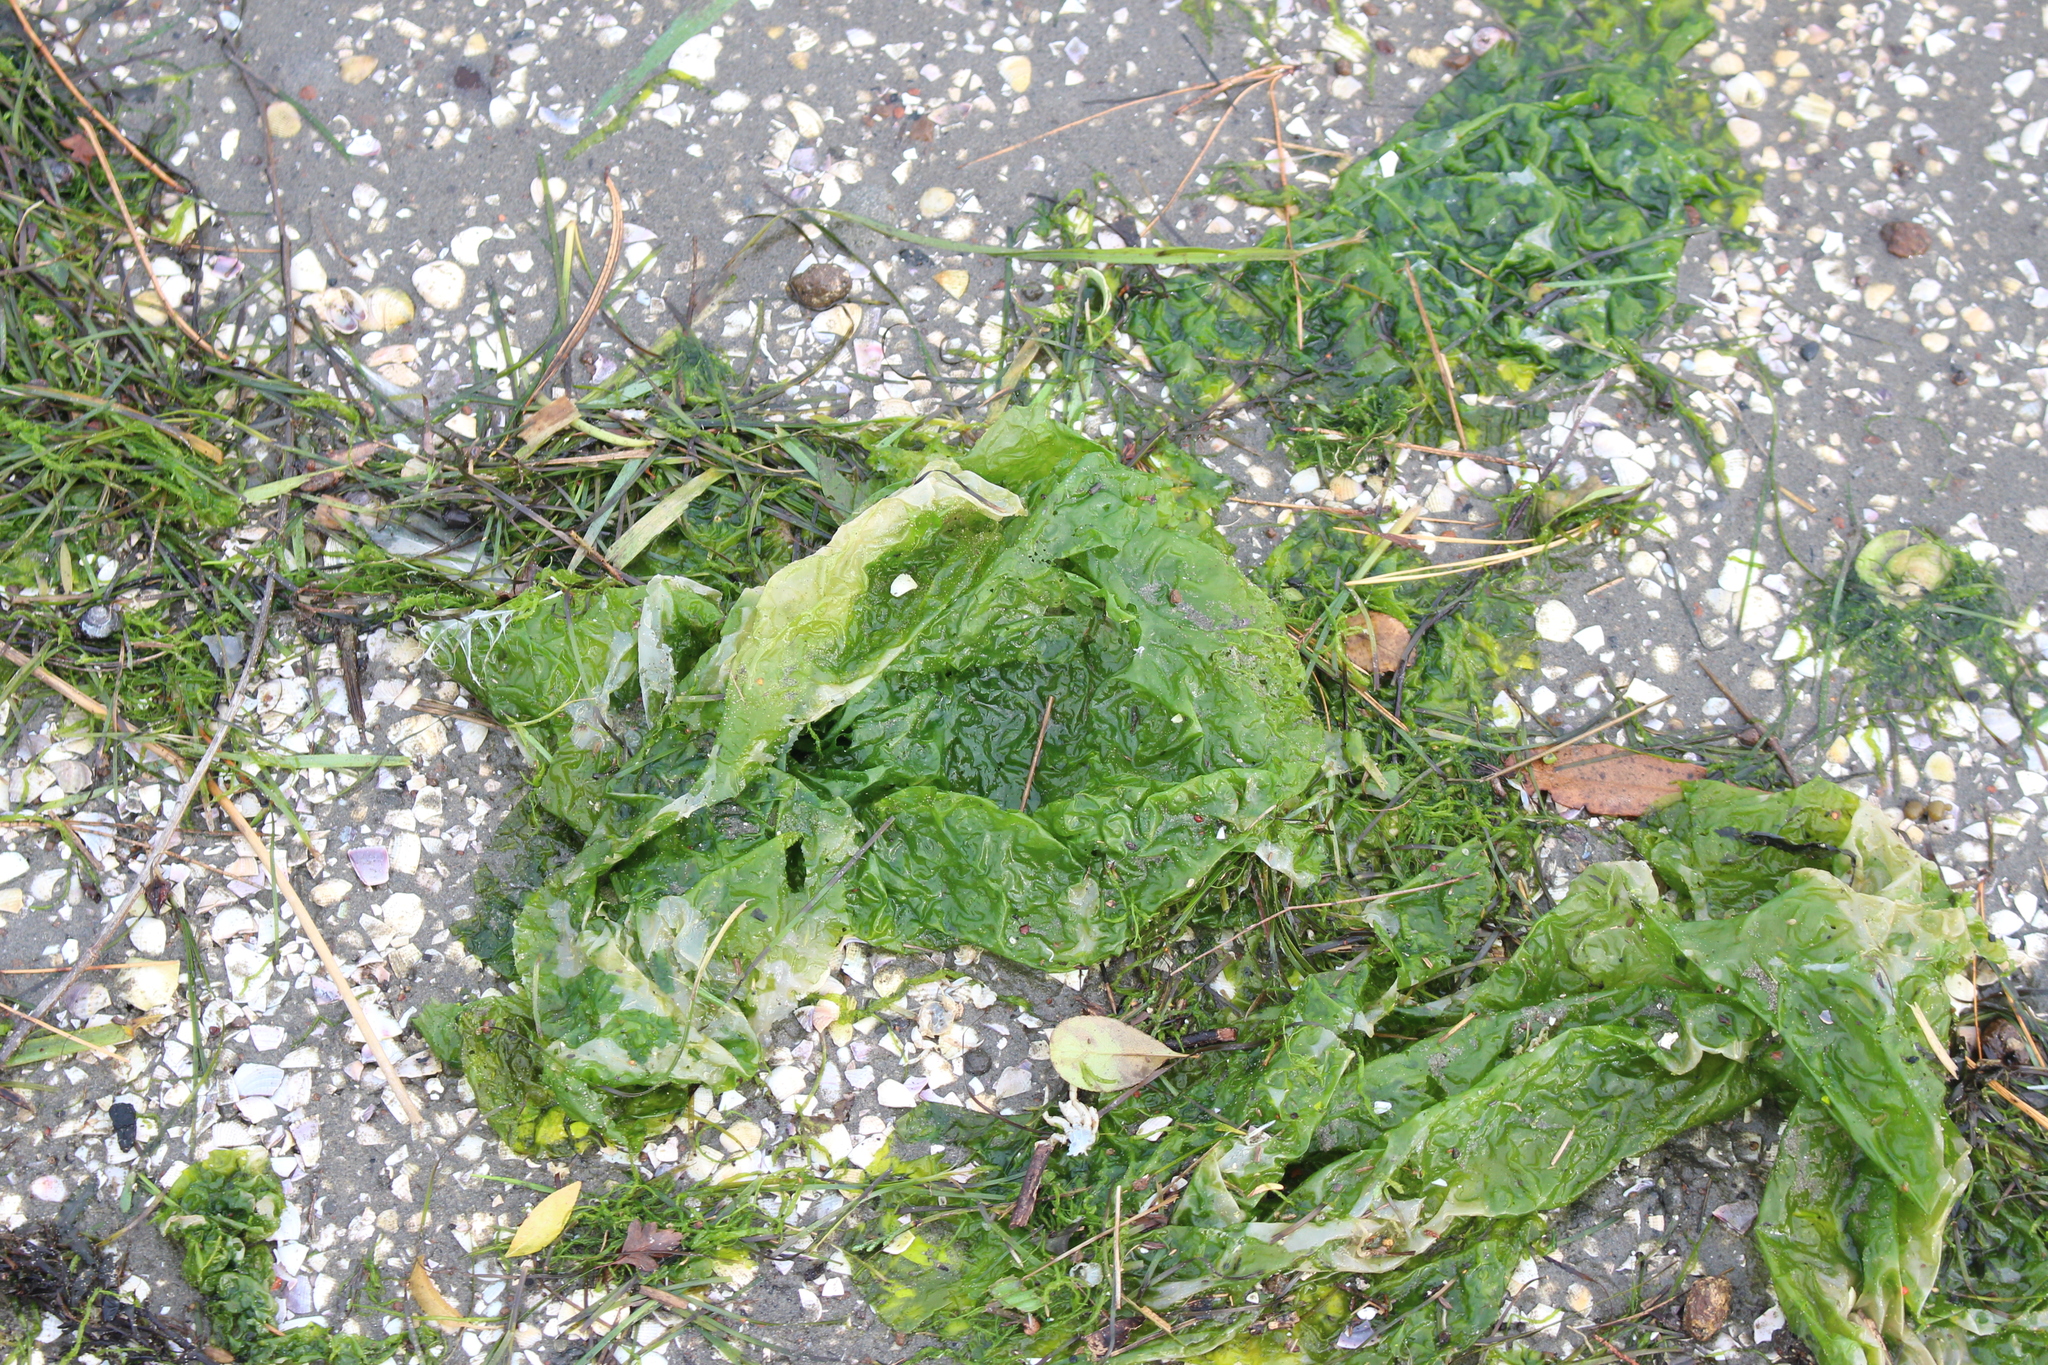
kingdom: Plantae
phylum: Chlorophyta
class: Ulvophyceae
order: Ulvales
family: Ulvaceae
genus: Ulva
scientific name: Ulva
